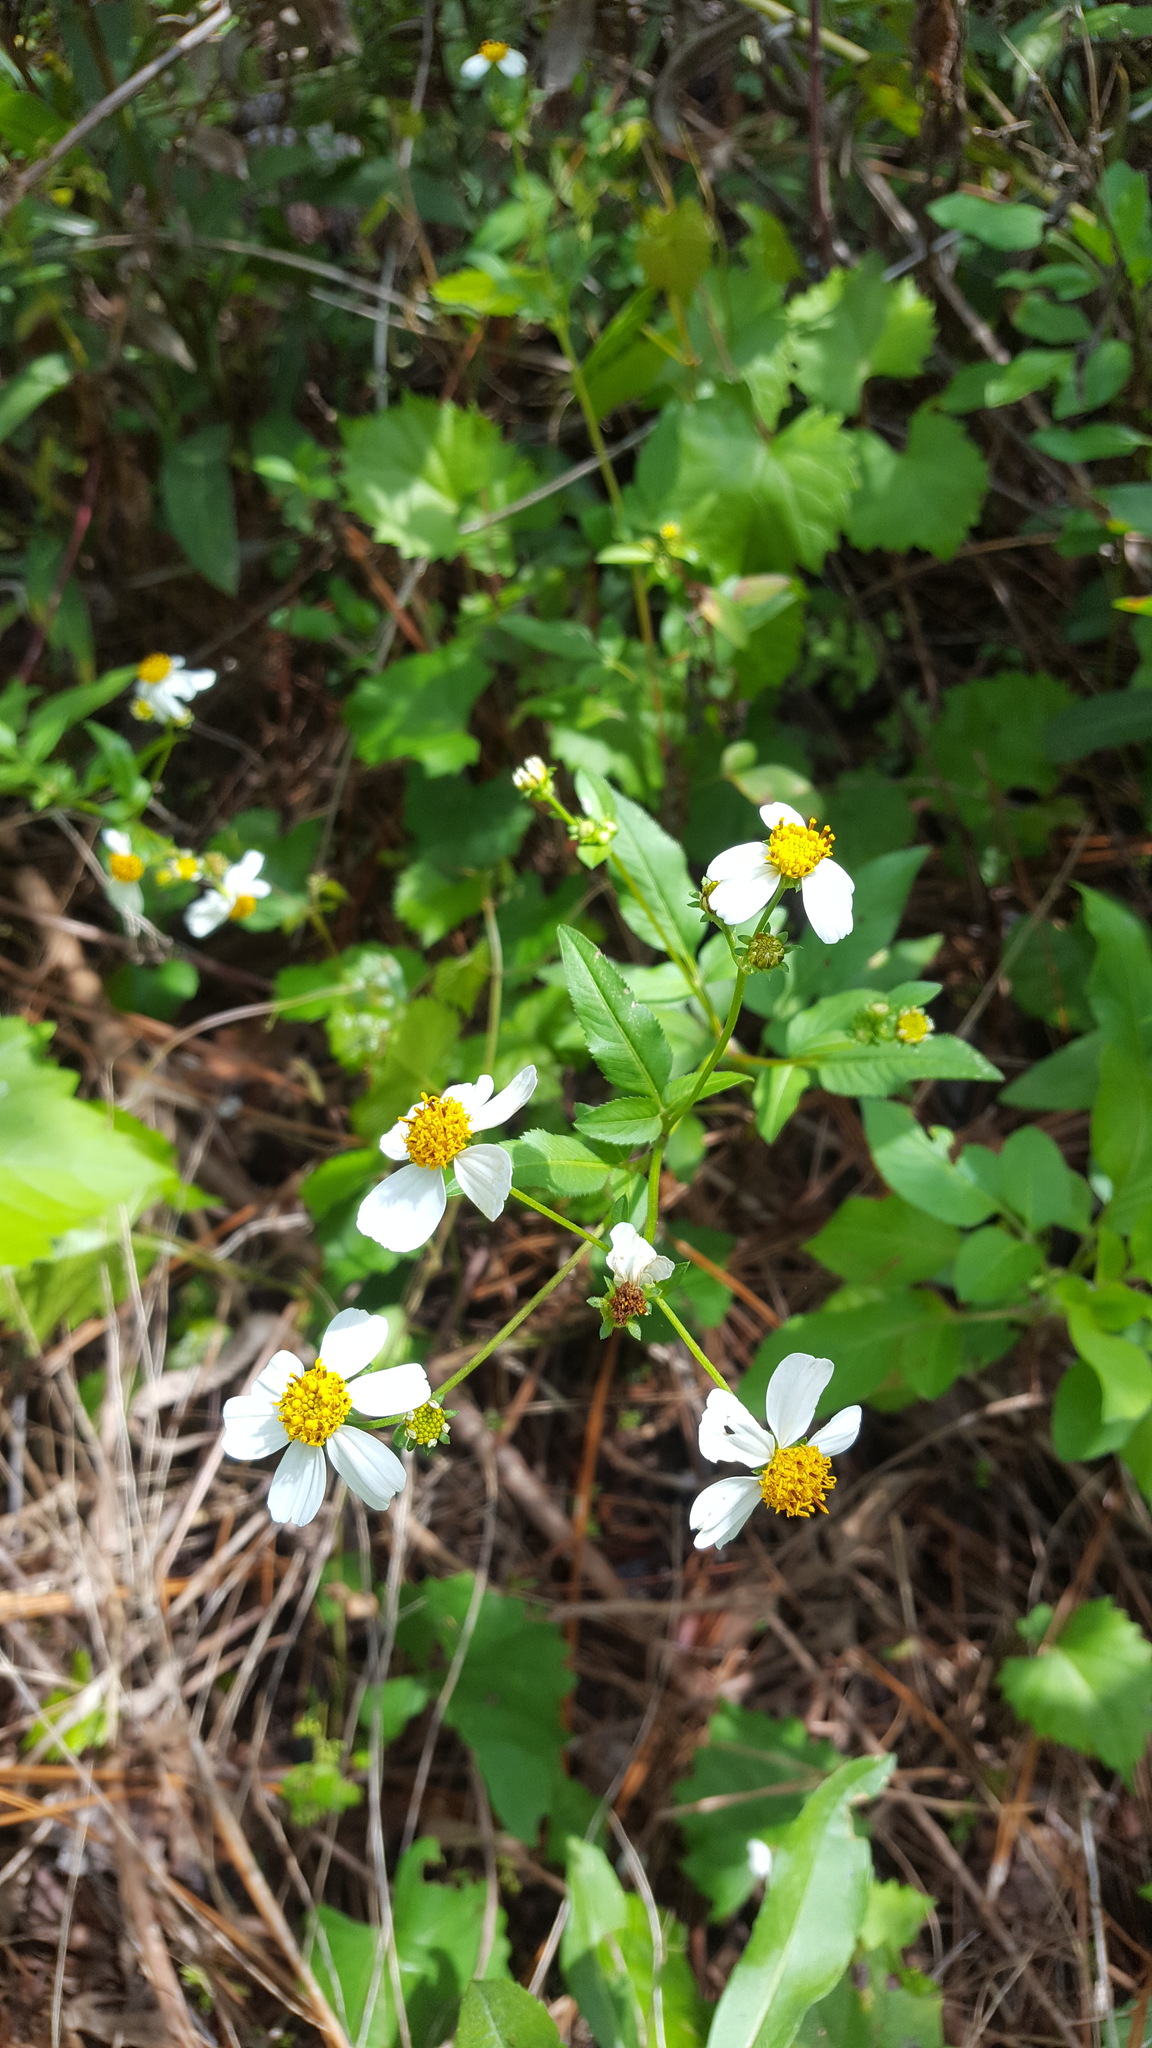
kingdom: Plantae
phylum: Tracheophyta
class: Magnoliopsida
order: Asterales
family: Asteraceae
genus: Bidens
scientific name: Bidens alba
